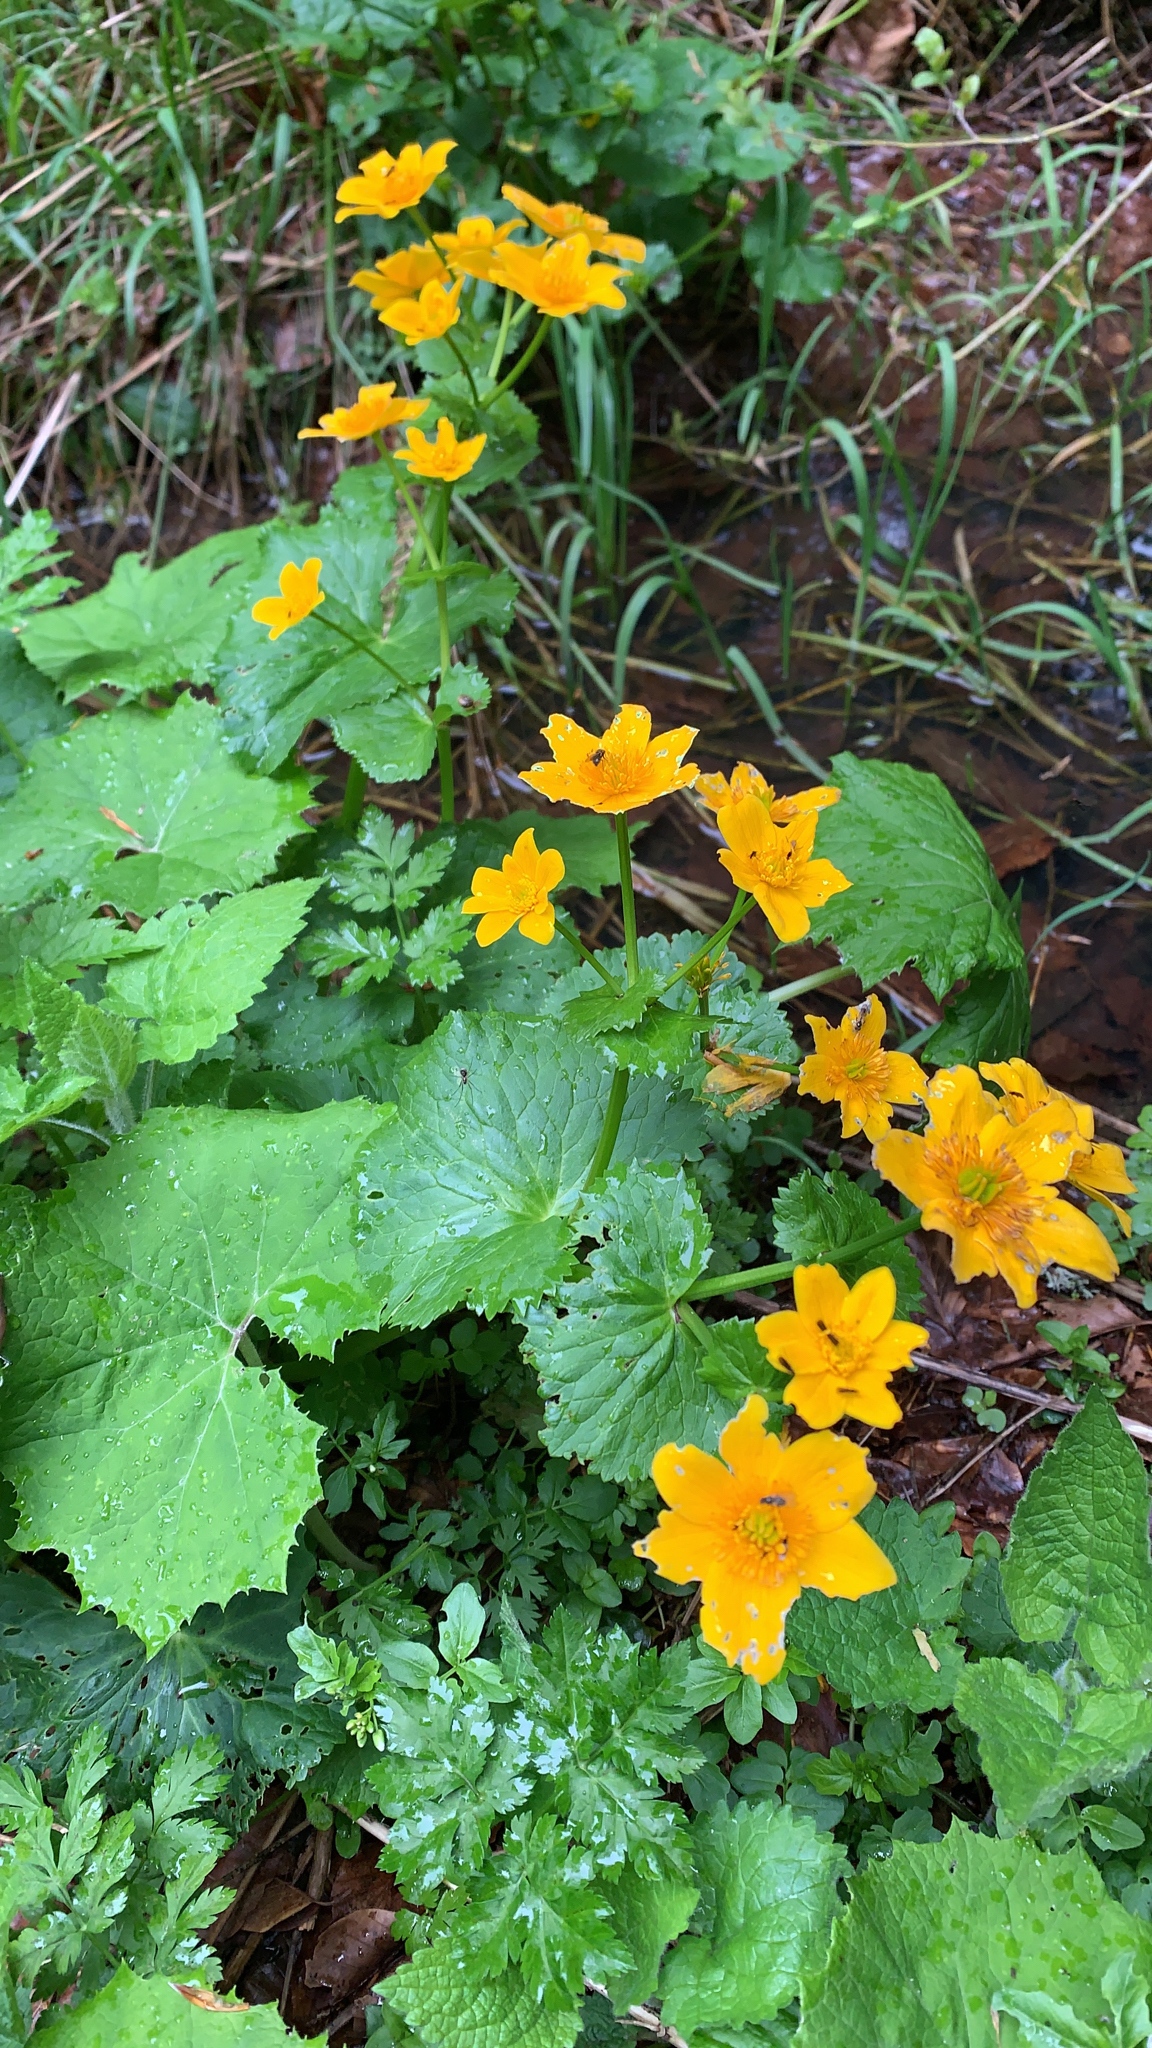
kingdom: Plantae
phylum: Tracheophyta
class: Magnoliopsida
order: Ranunculales
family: Ranunculaceae
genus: Caltha
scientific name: Caltha palustris
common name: Marsh marigold
